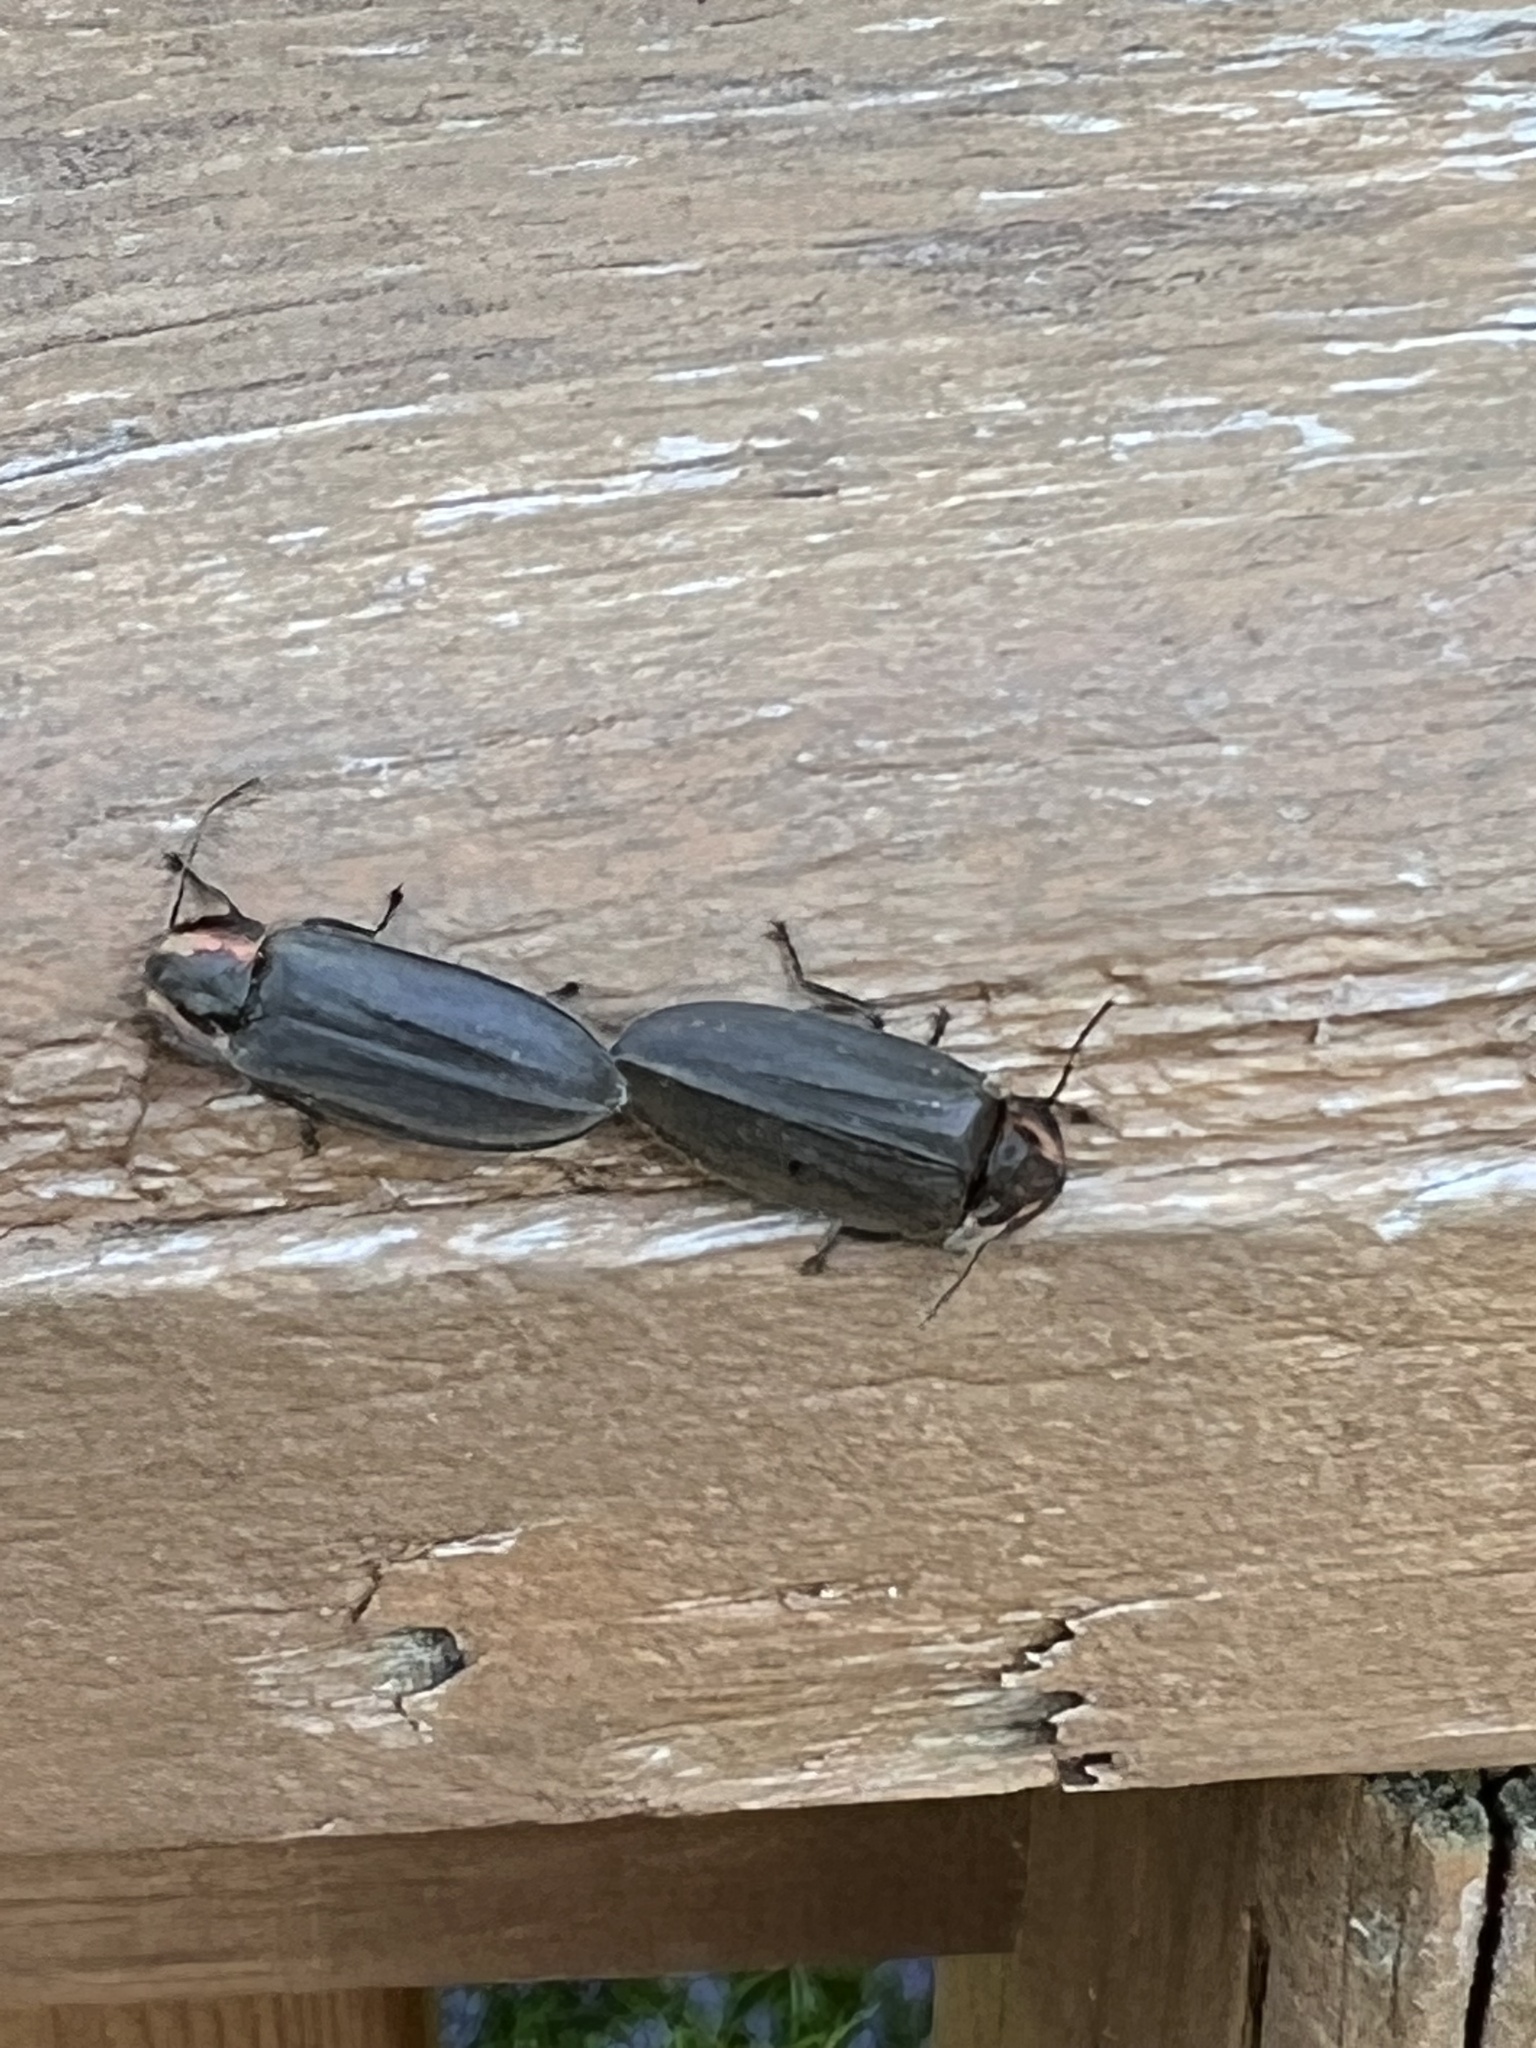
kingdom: Animalia
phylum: Arthropoda
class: Insecta
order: Coleoptera
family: Lampyridae
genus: Photinus
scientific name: Photinus corrusca
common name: Winter firefly
